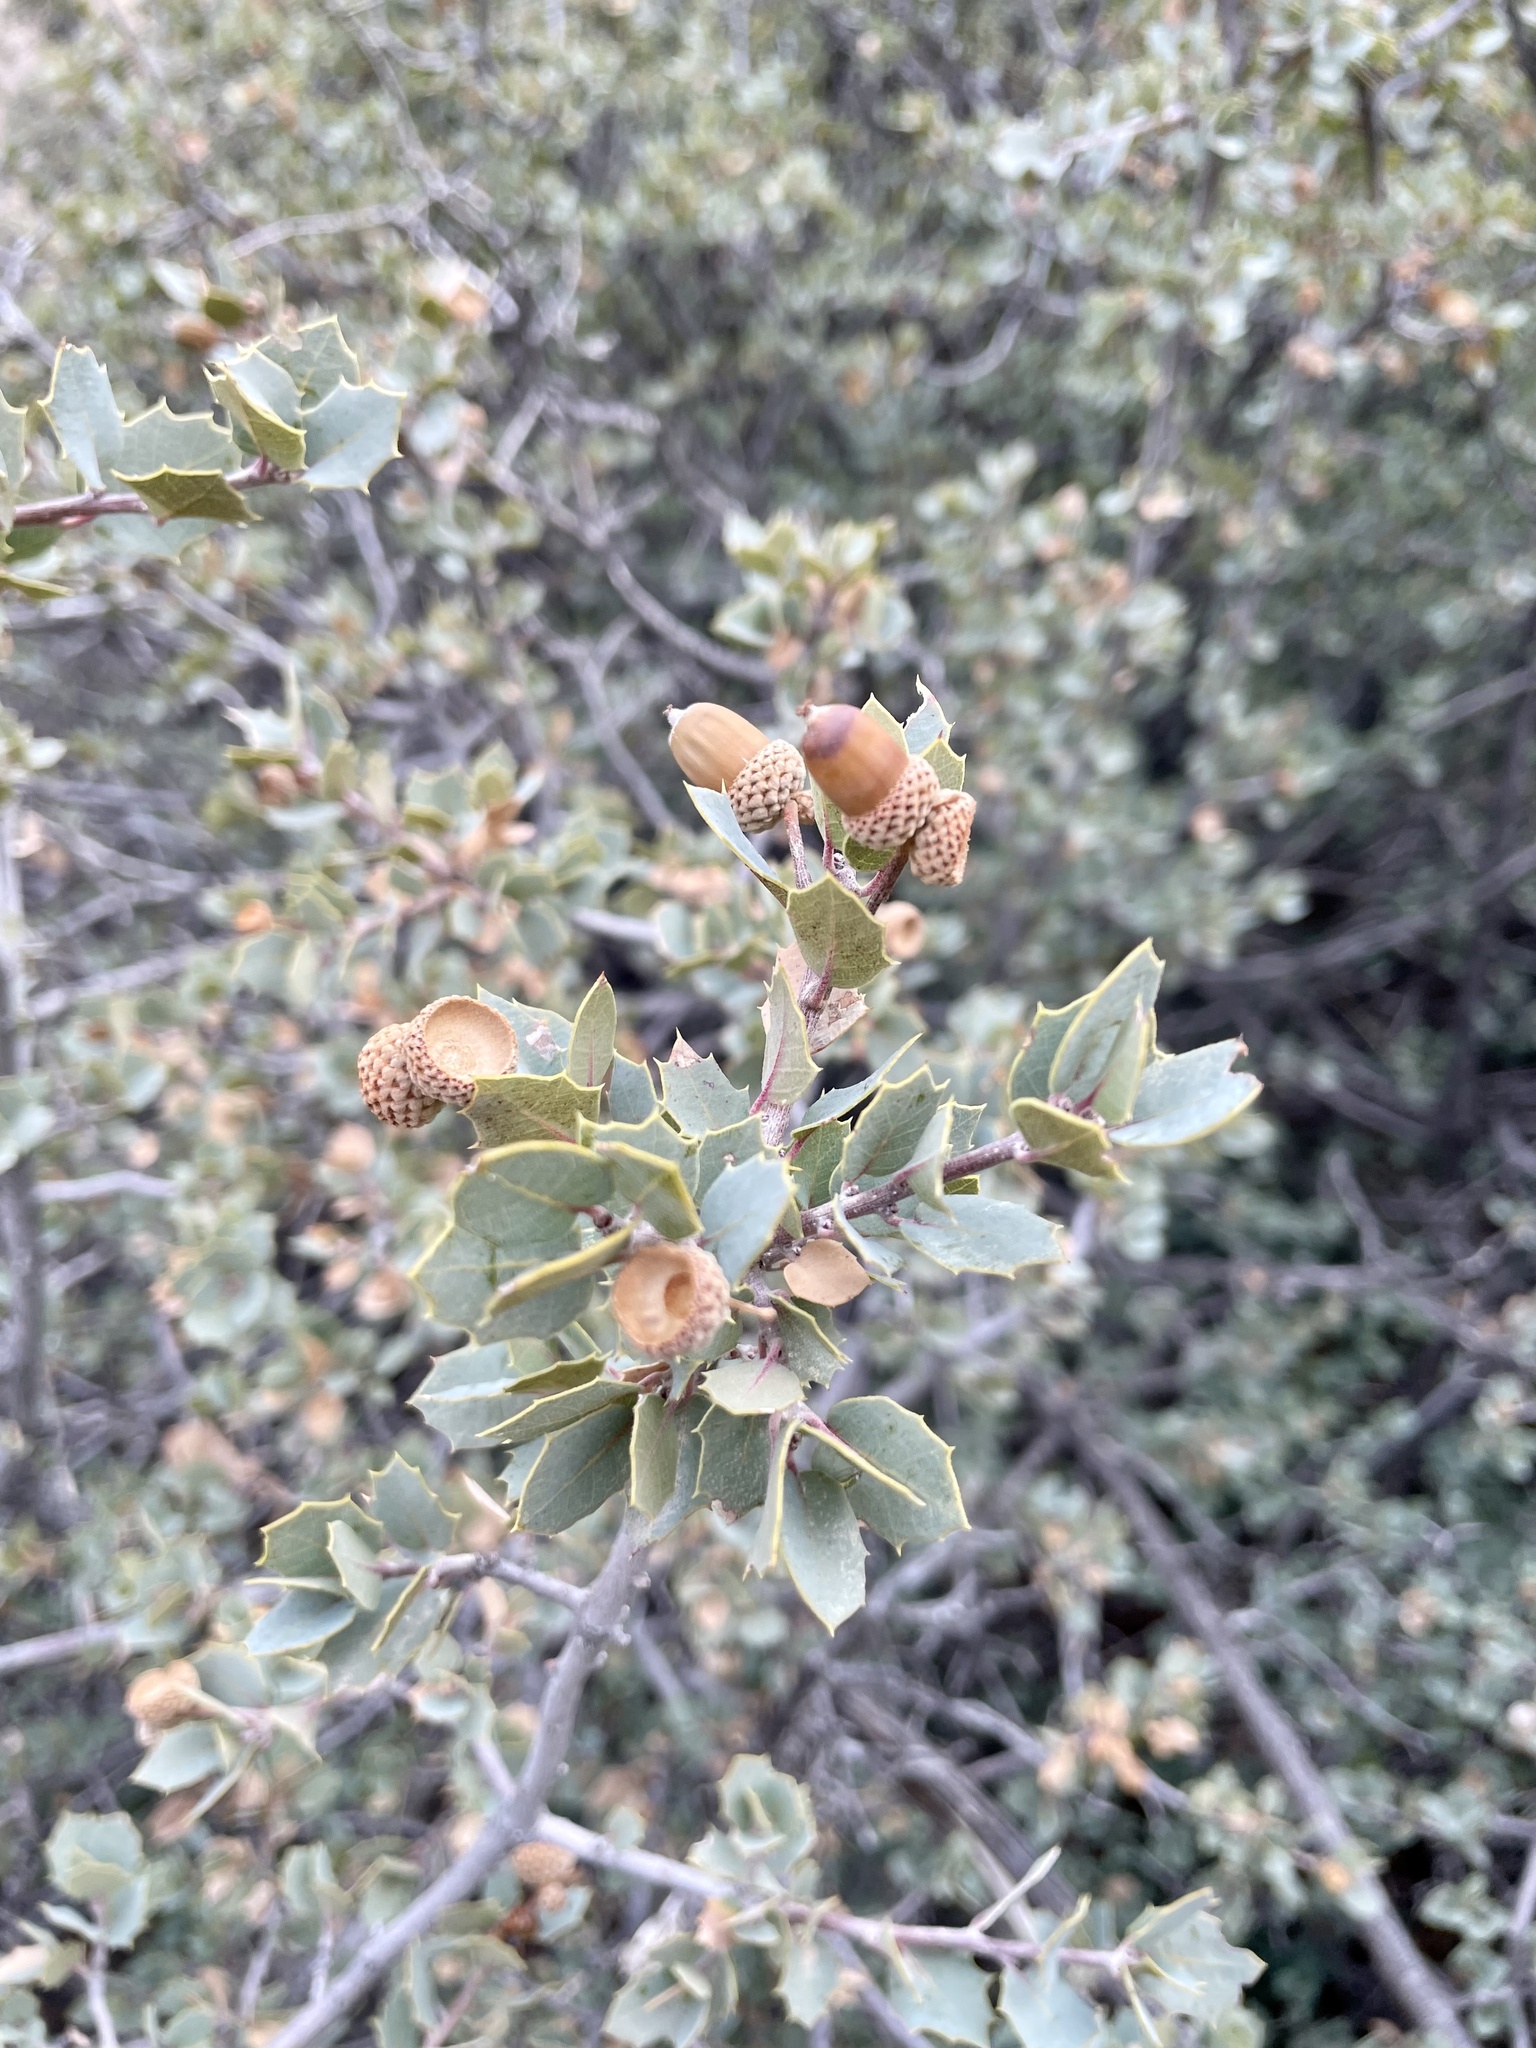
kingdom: Plantae
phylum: Tracheophyta
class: Magnoliopsida
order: Fagales
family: Fagaceae
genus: Quercus
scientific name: Quercus turbinella
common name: Sonoran scrub oak
